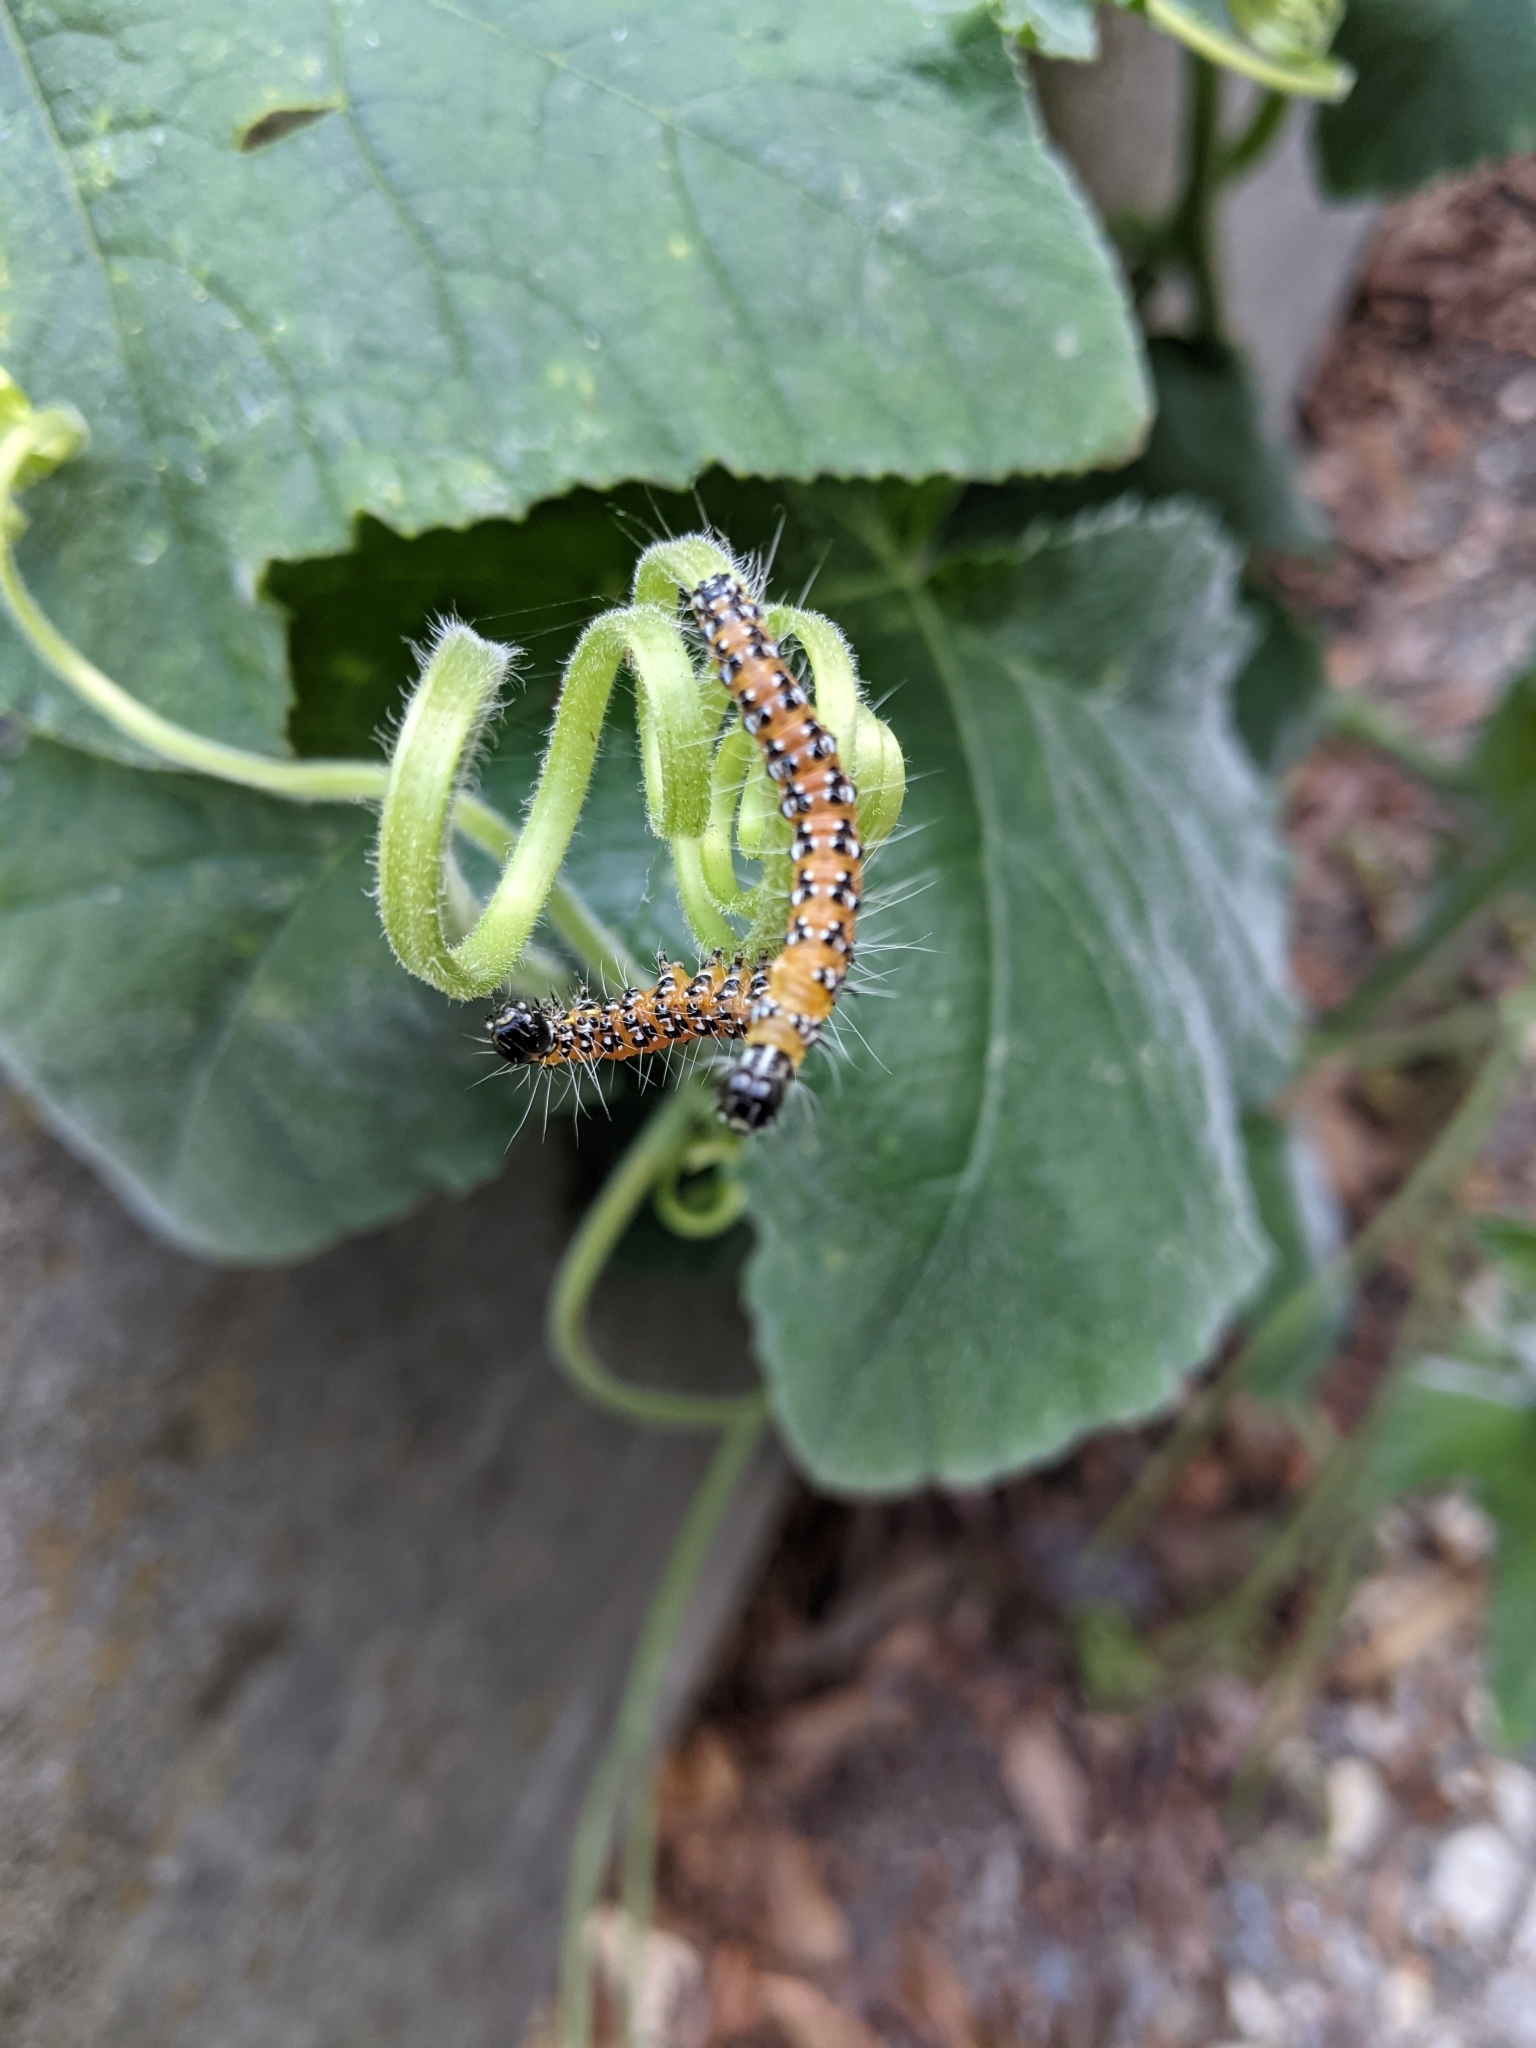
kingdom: Animalia
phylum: Arthropoda
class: Insecta
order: Lepidoptera
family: Crambidae
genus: Uresiphita
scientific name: Uresiphita reversalis
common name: Genista broom moth
